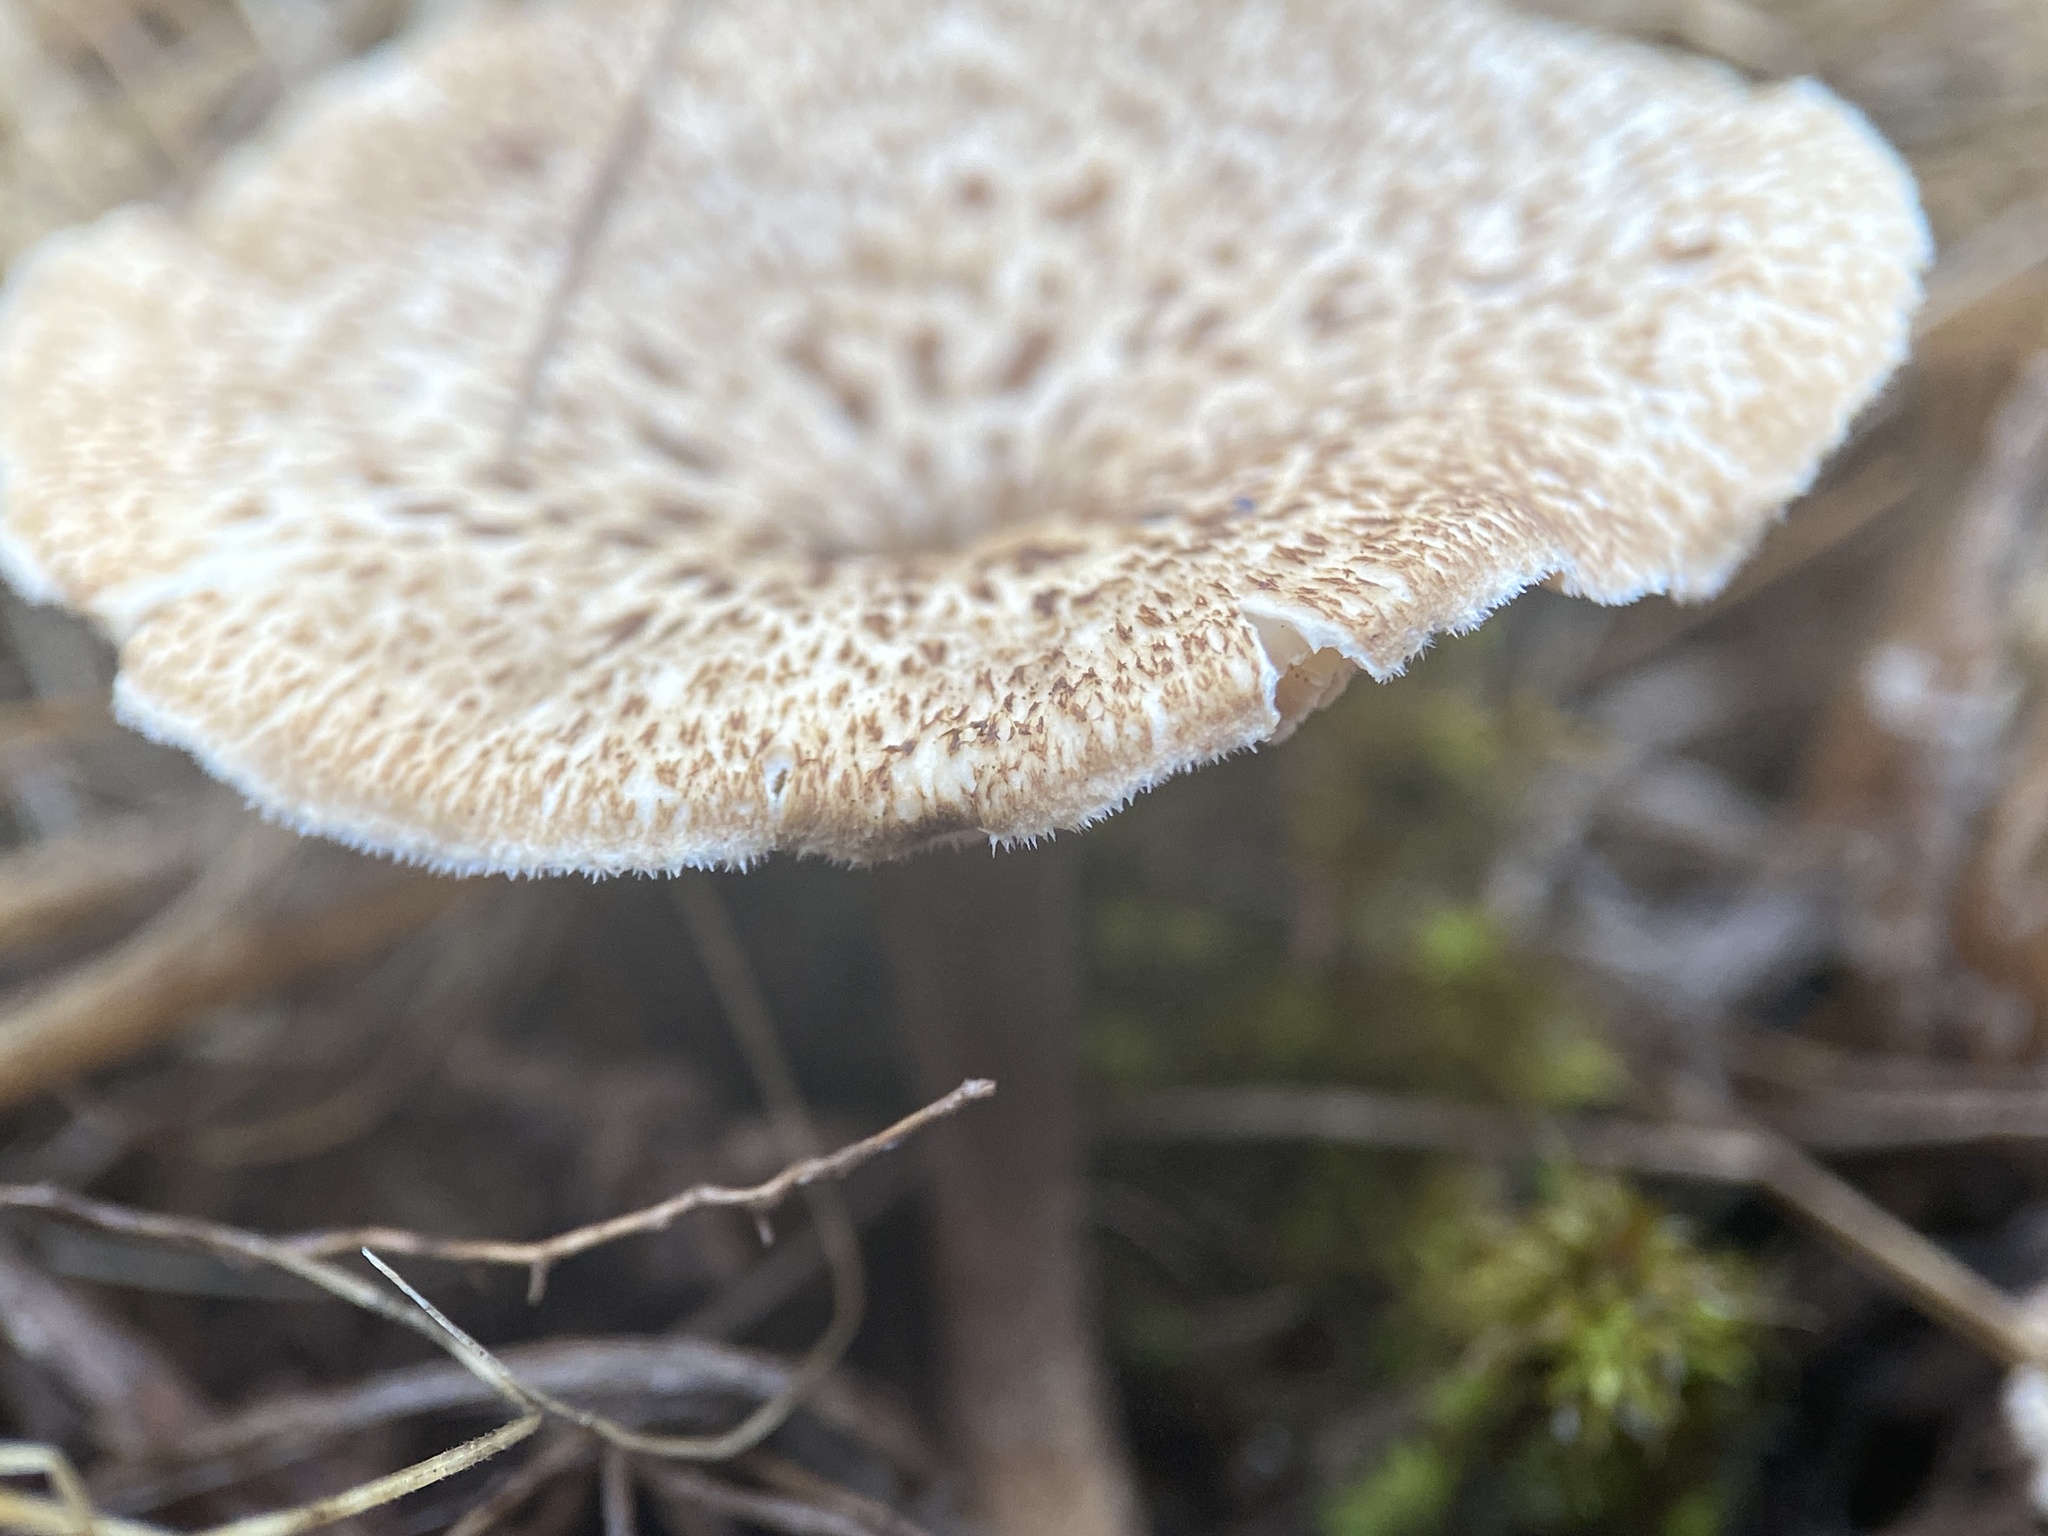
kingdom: Fungi
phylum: Basidiomycota
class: Agaricomycetes
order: Polyporales
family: Polyporaceae
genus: Lentinus
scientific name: Lentinus arcularius
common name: Spring polypore
